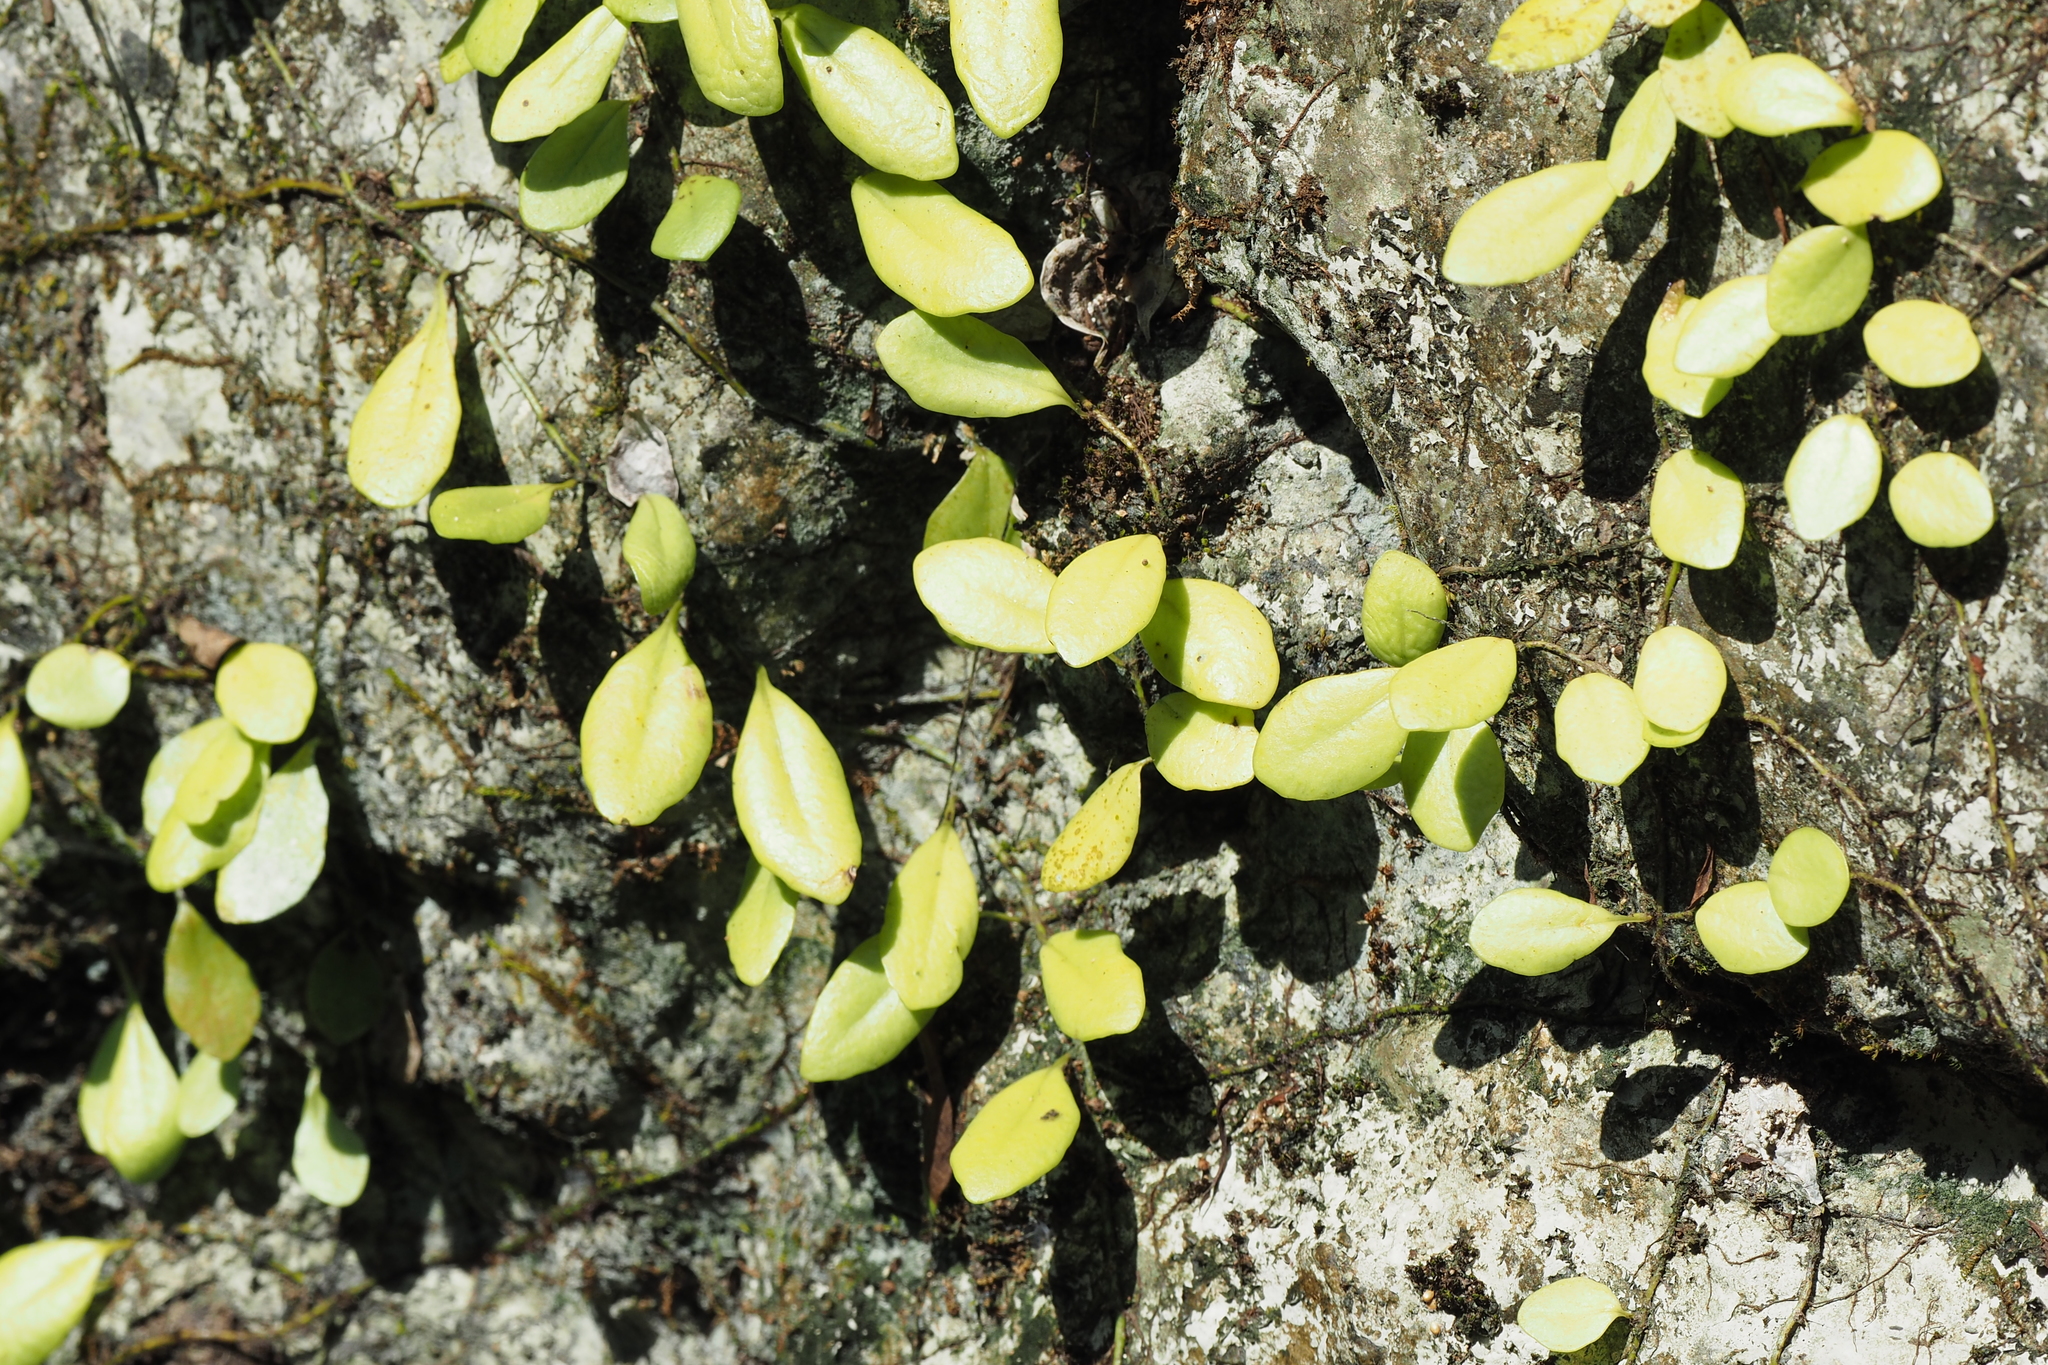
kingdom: Plantae
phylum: Tracheophyta
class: Polypodiopsida
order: Polypodiales
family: Polypodiaceae
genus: Lepisorus
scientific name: Lepisorus microphyllus
